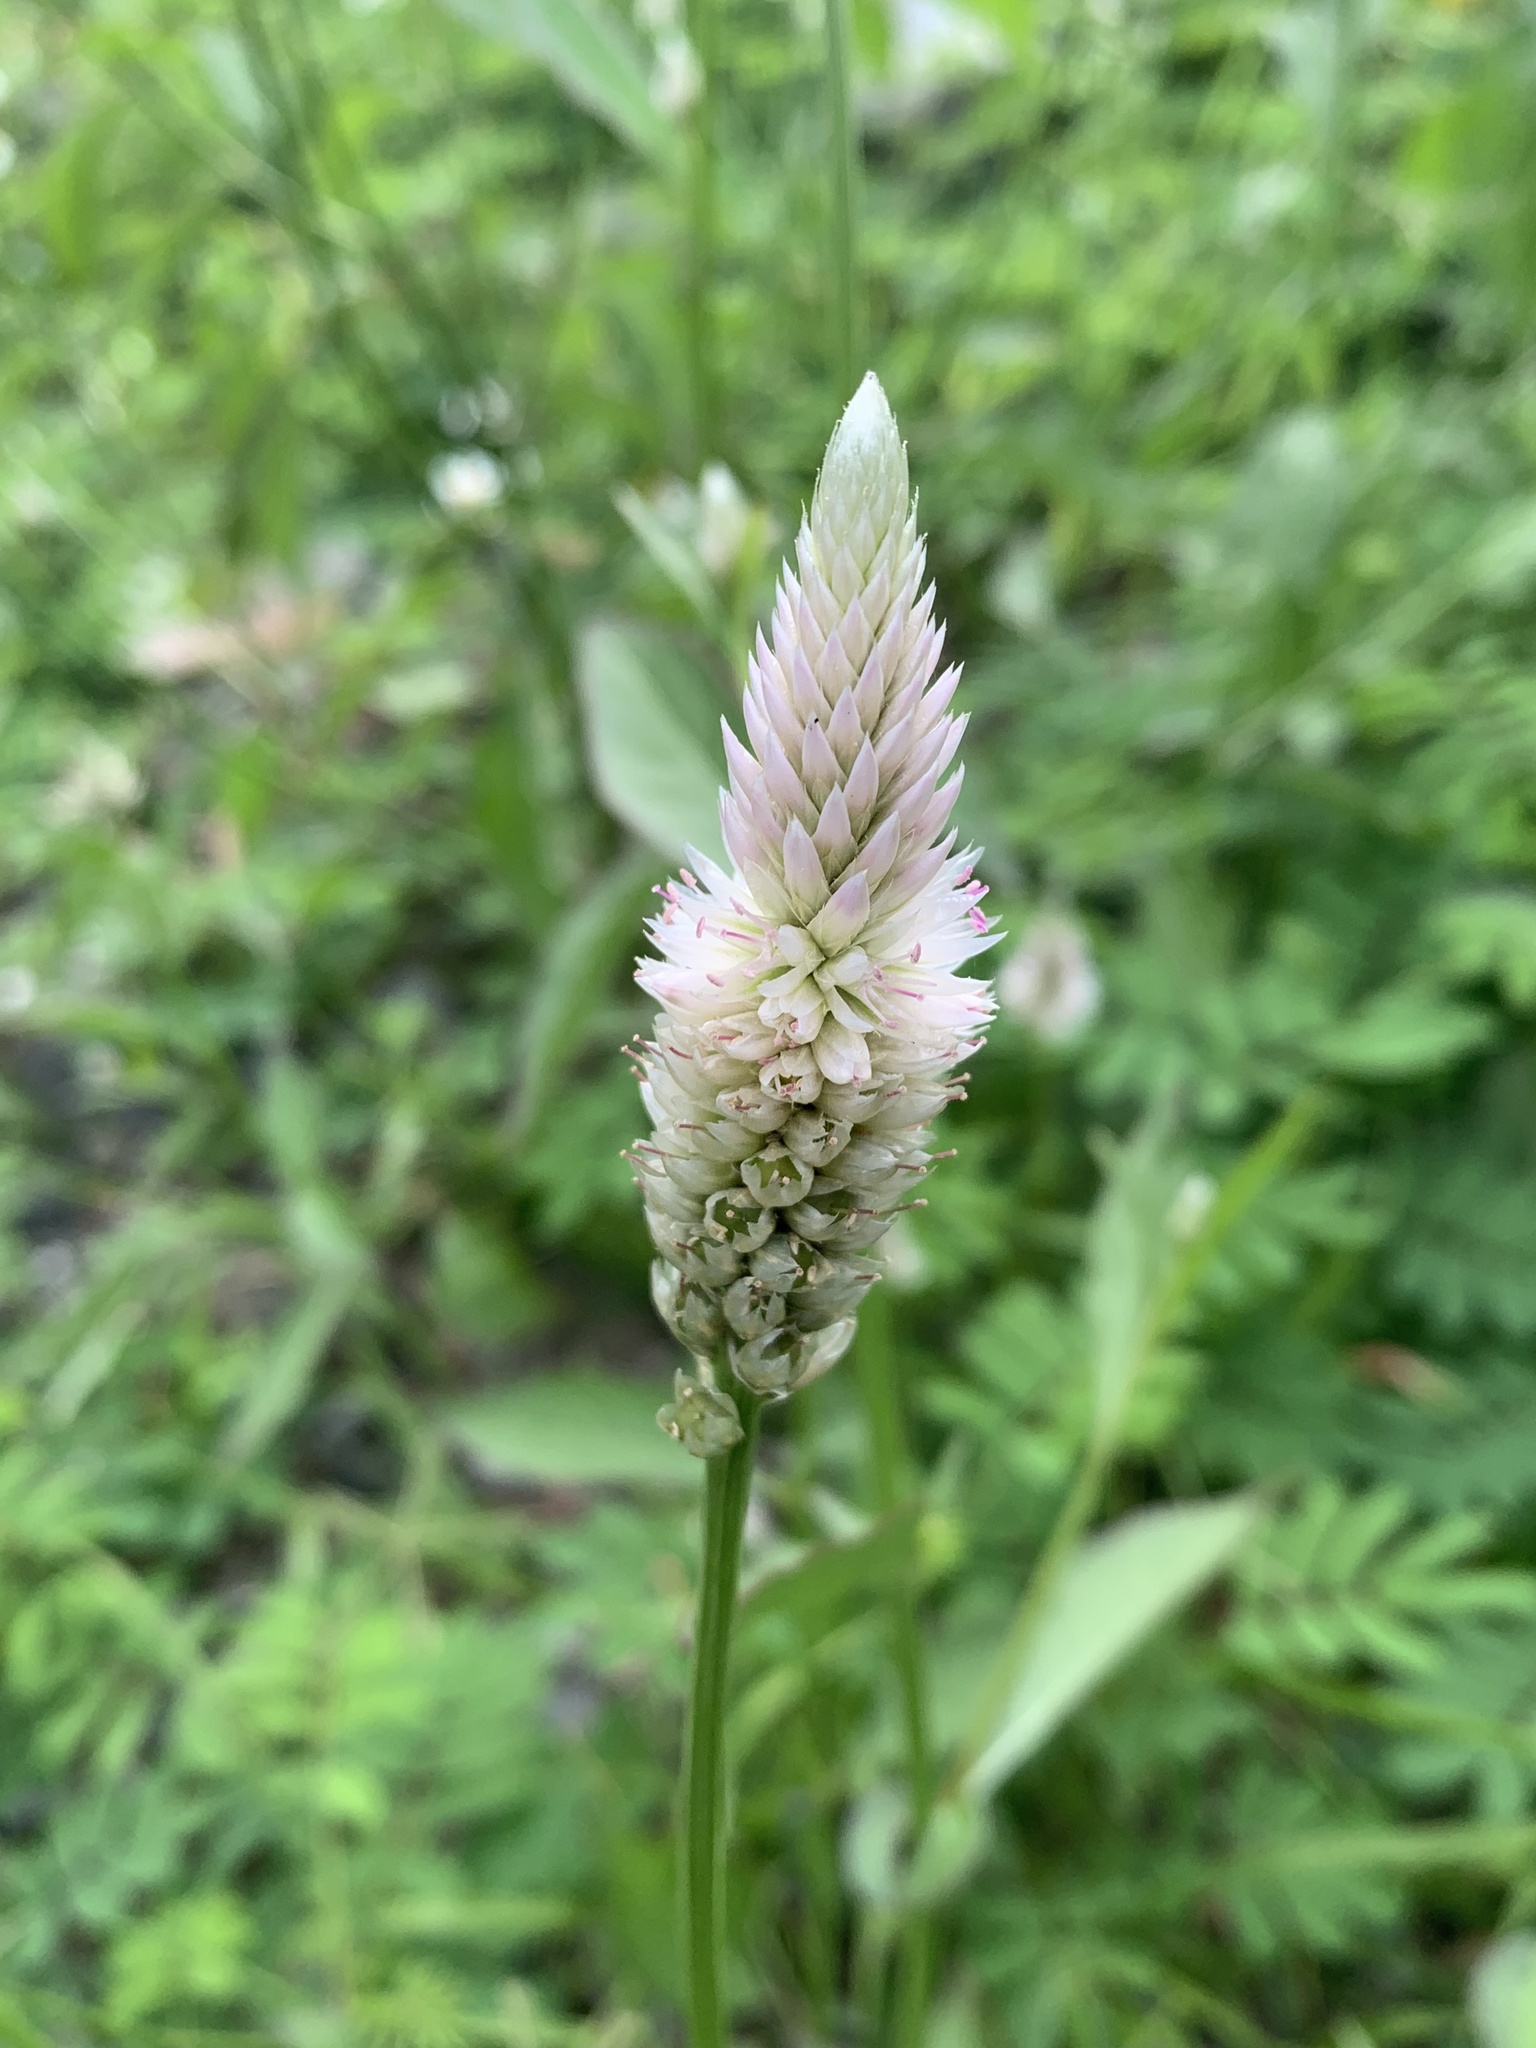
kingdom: Plantae
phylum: Tracheophyta
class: Magnoliopsida
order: Caryophyllales
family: Amaranthaceae
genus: Celosia
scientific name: Celosia argentea
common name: Feather cockscomb
